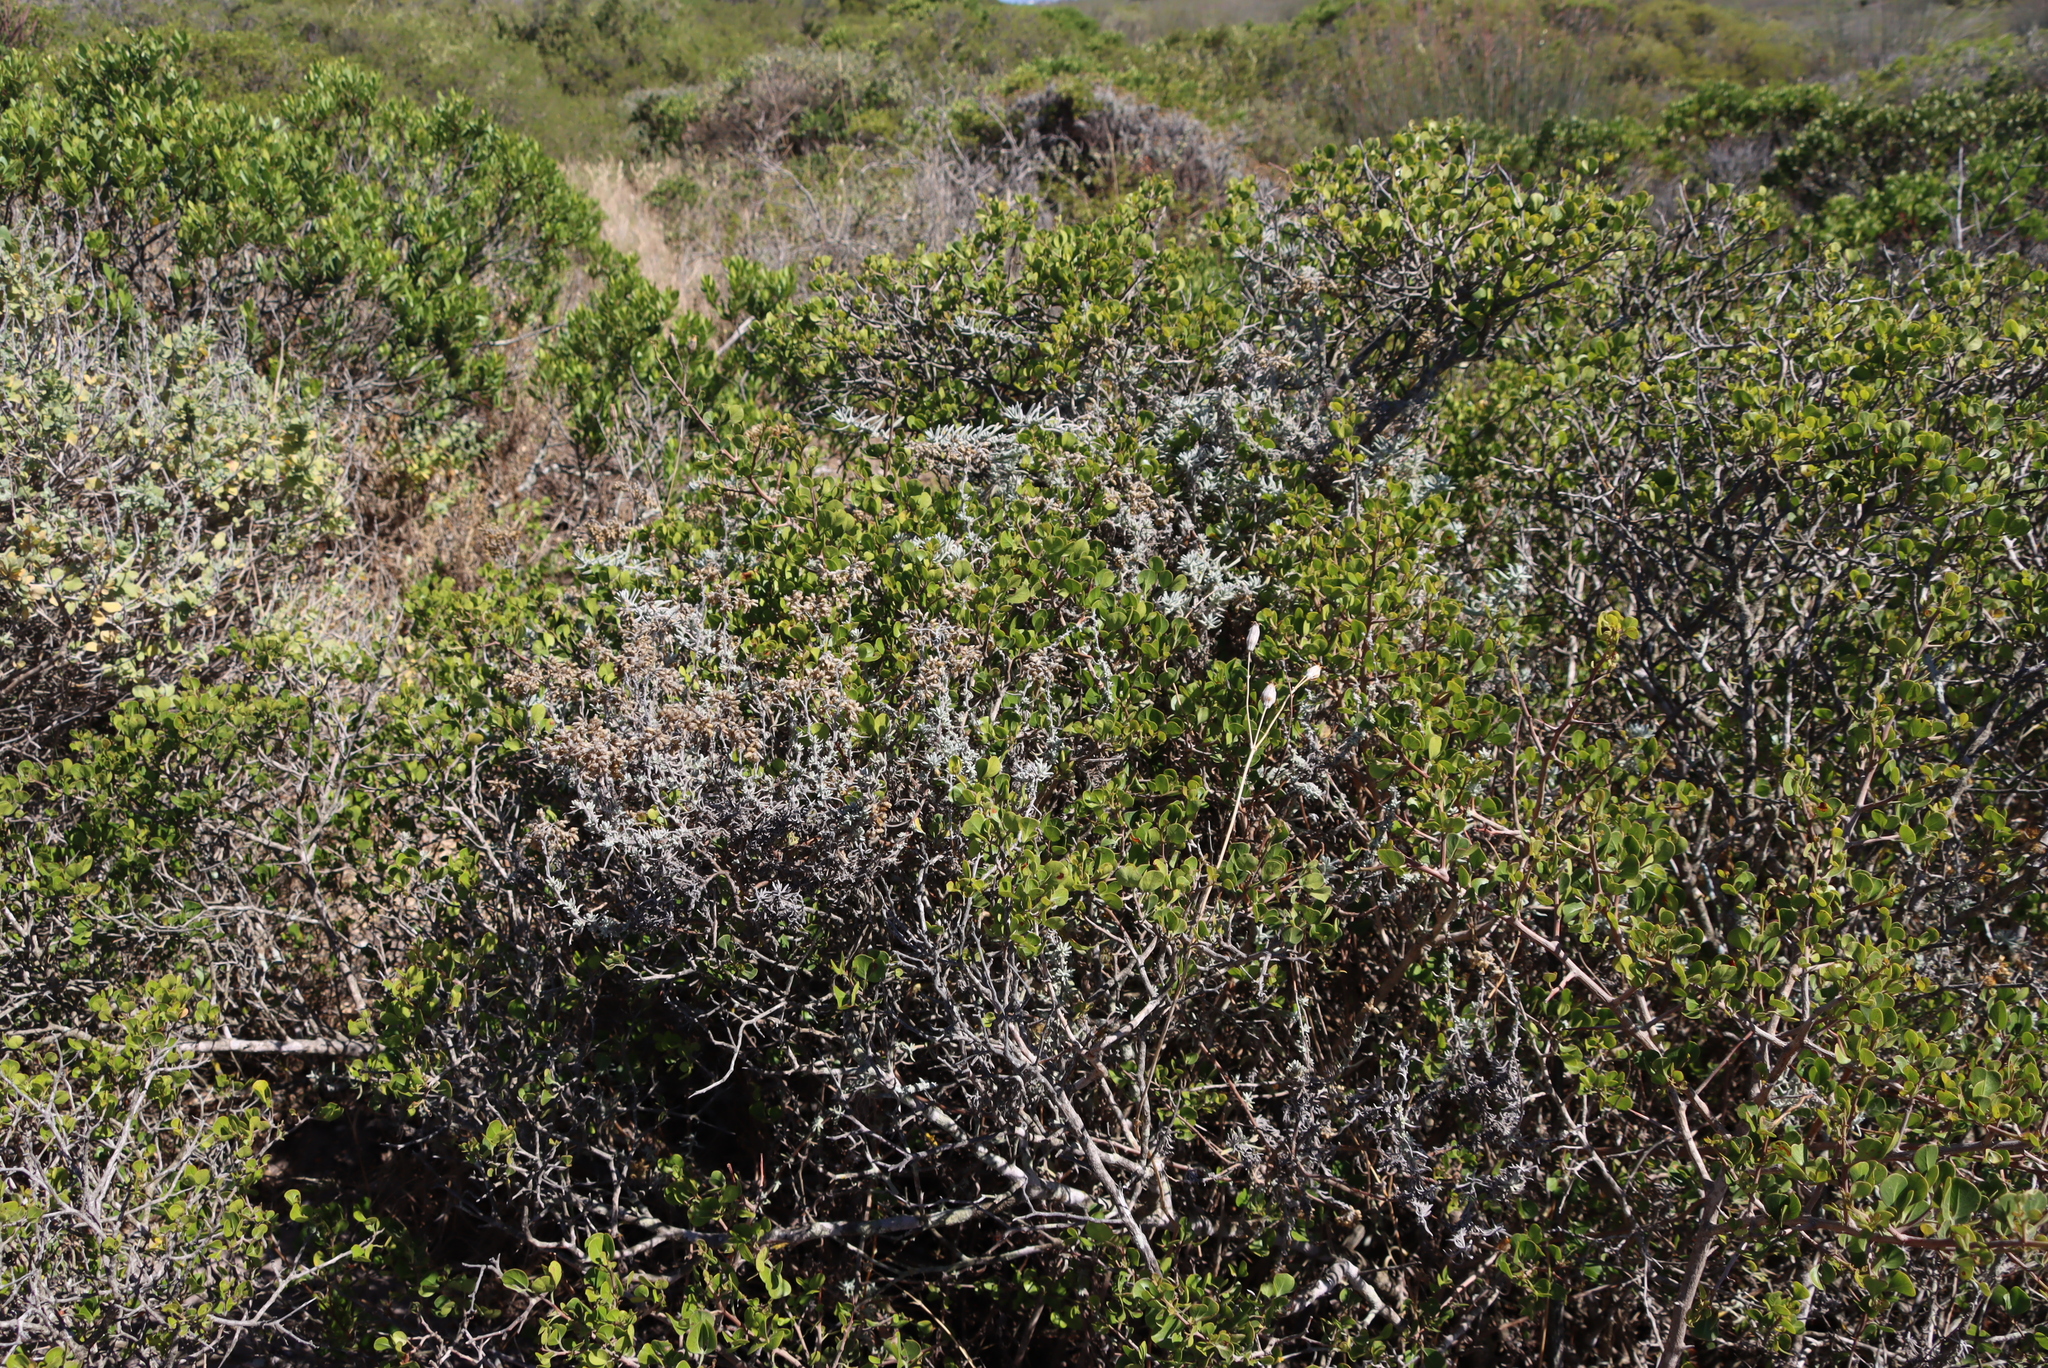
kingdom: Plantae
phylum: Tracheophyta
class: Magnoliopsida
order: Asterales
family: Asteraceae
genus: Helichrysum
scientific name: Helichrysum revolutum
